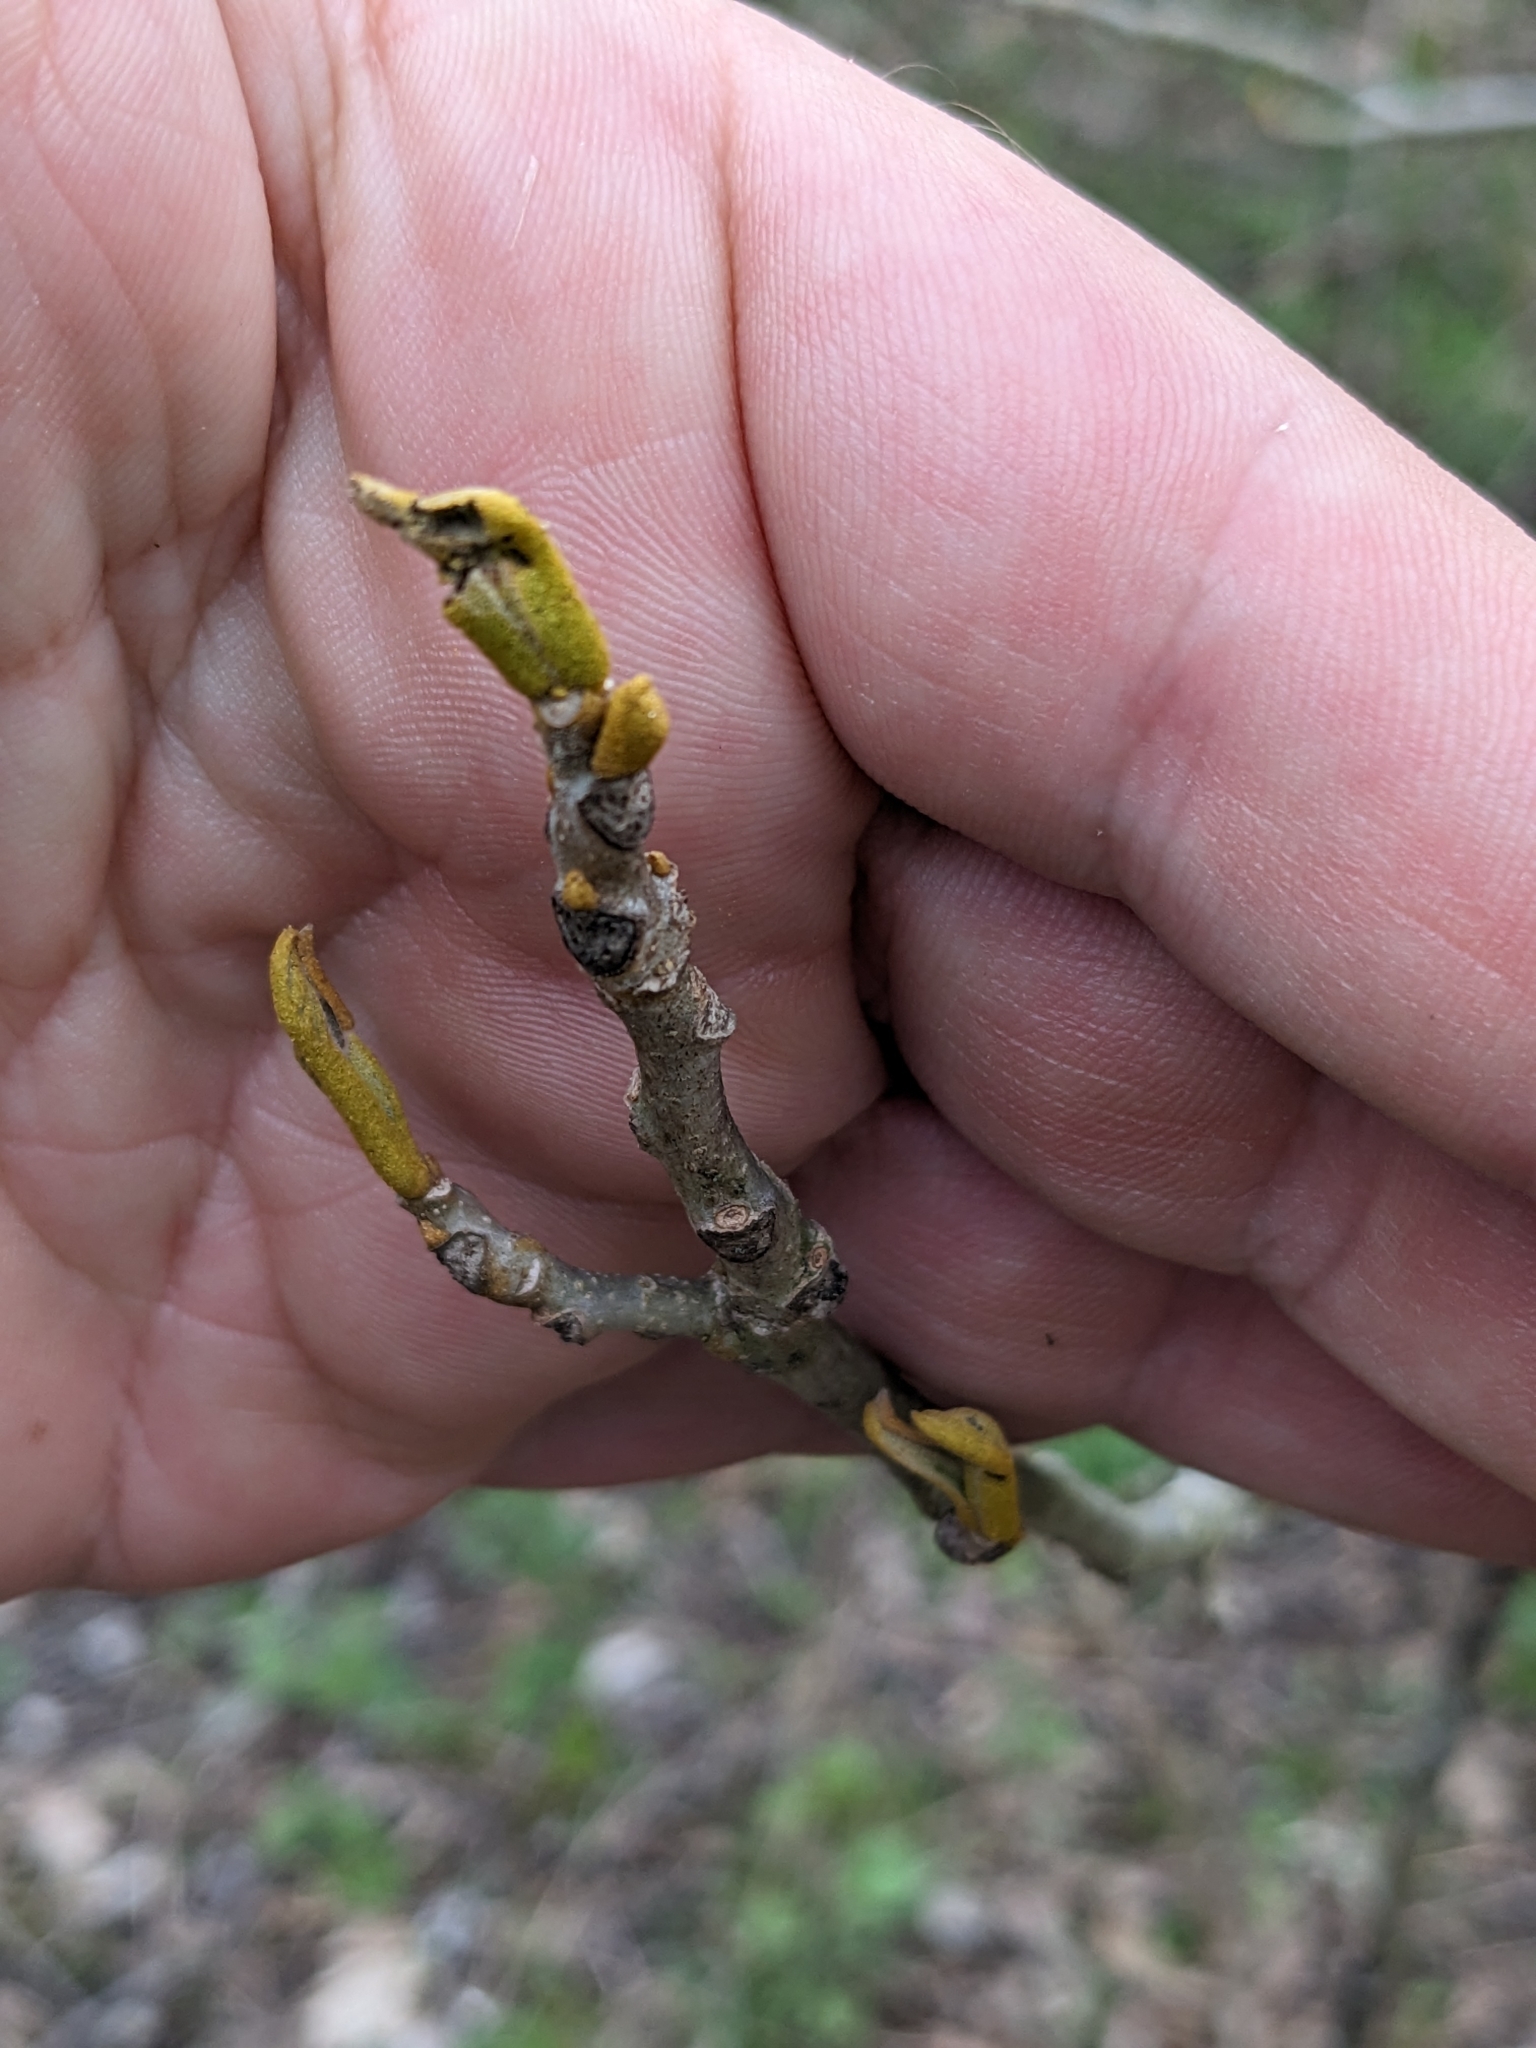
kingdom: Plantae
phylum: Tracheophyta
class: Magnoliopsida
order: Fagales
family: Juglandaceae
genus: Carya
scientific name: Carya cordiformis
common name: Bitternut hickory
